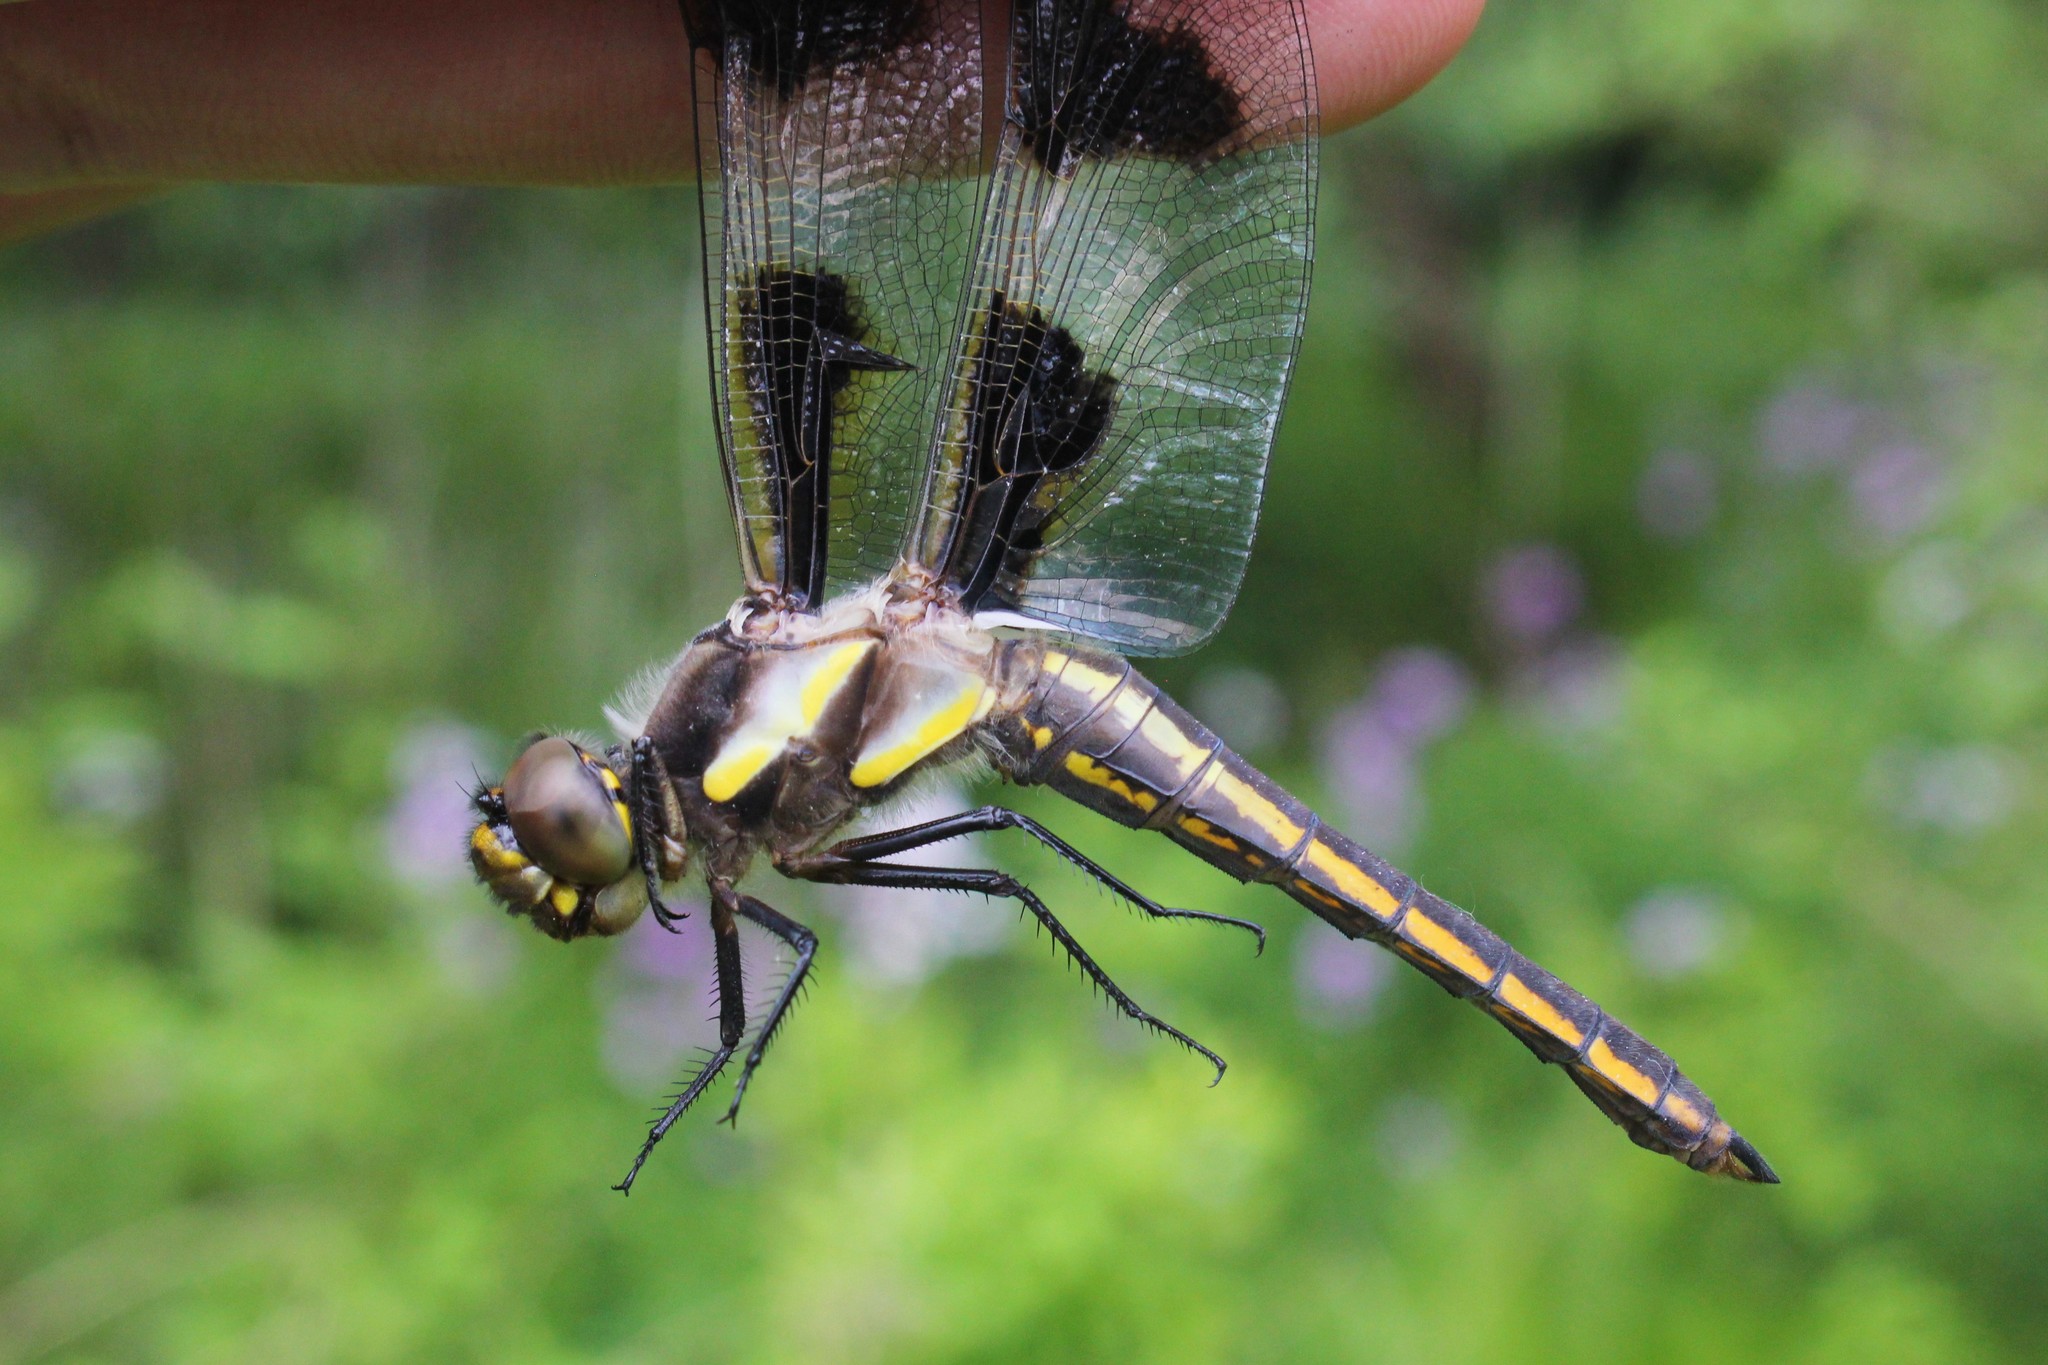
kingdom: Animalia
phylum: Arthropoda
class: Insecta
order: Odonata
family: Libellulidae
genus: Libellula
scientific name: Libellula pulchella
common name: Twelve-spotted skimmer
